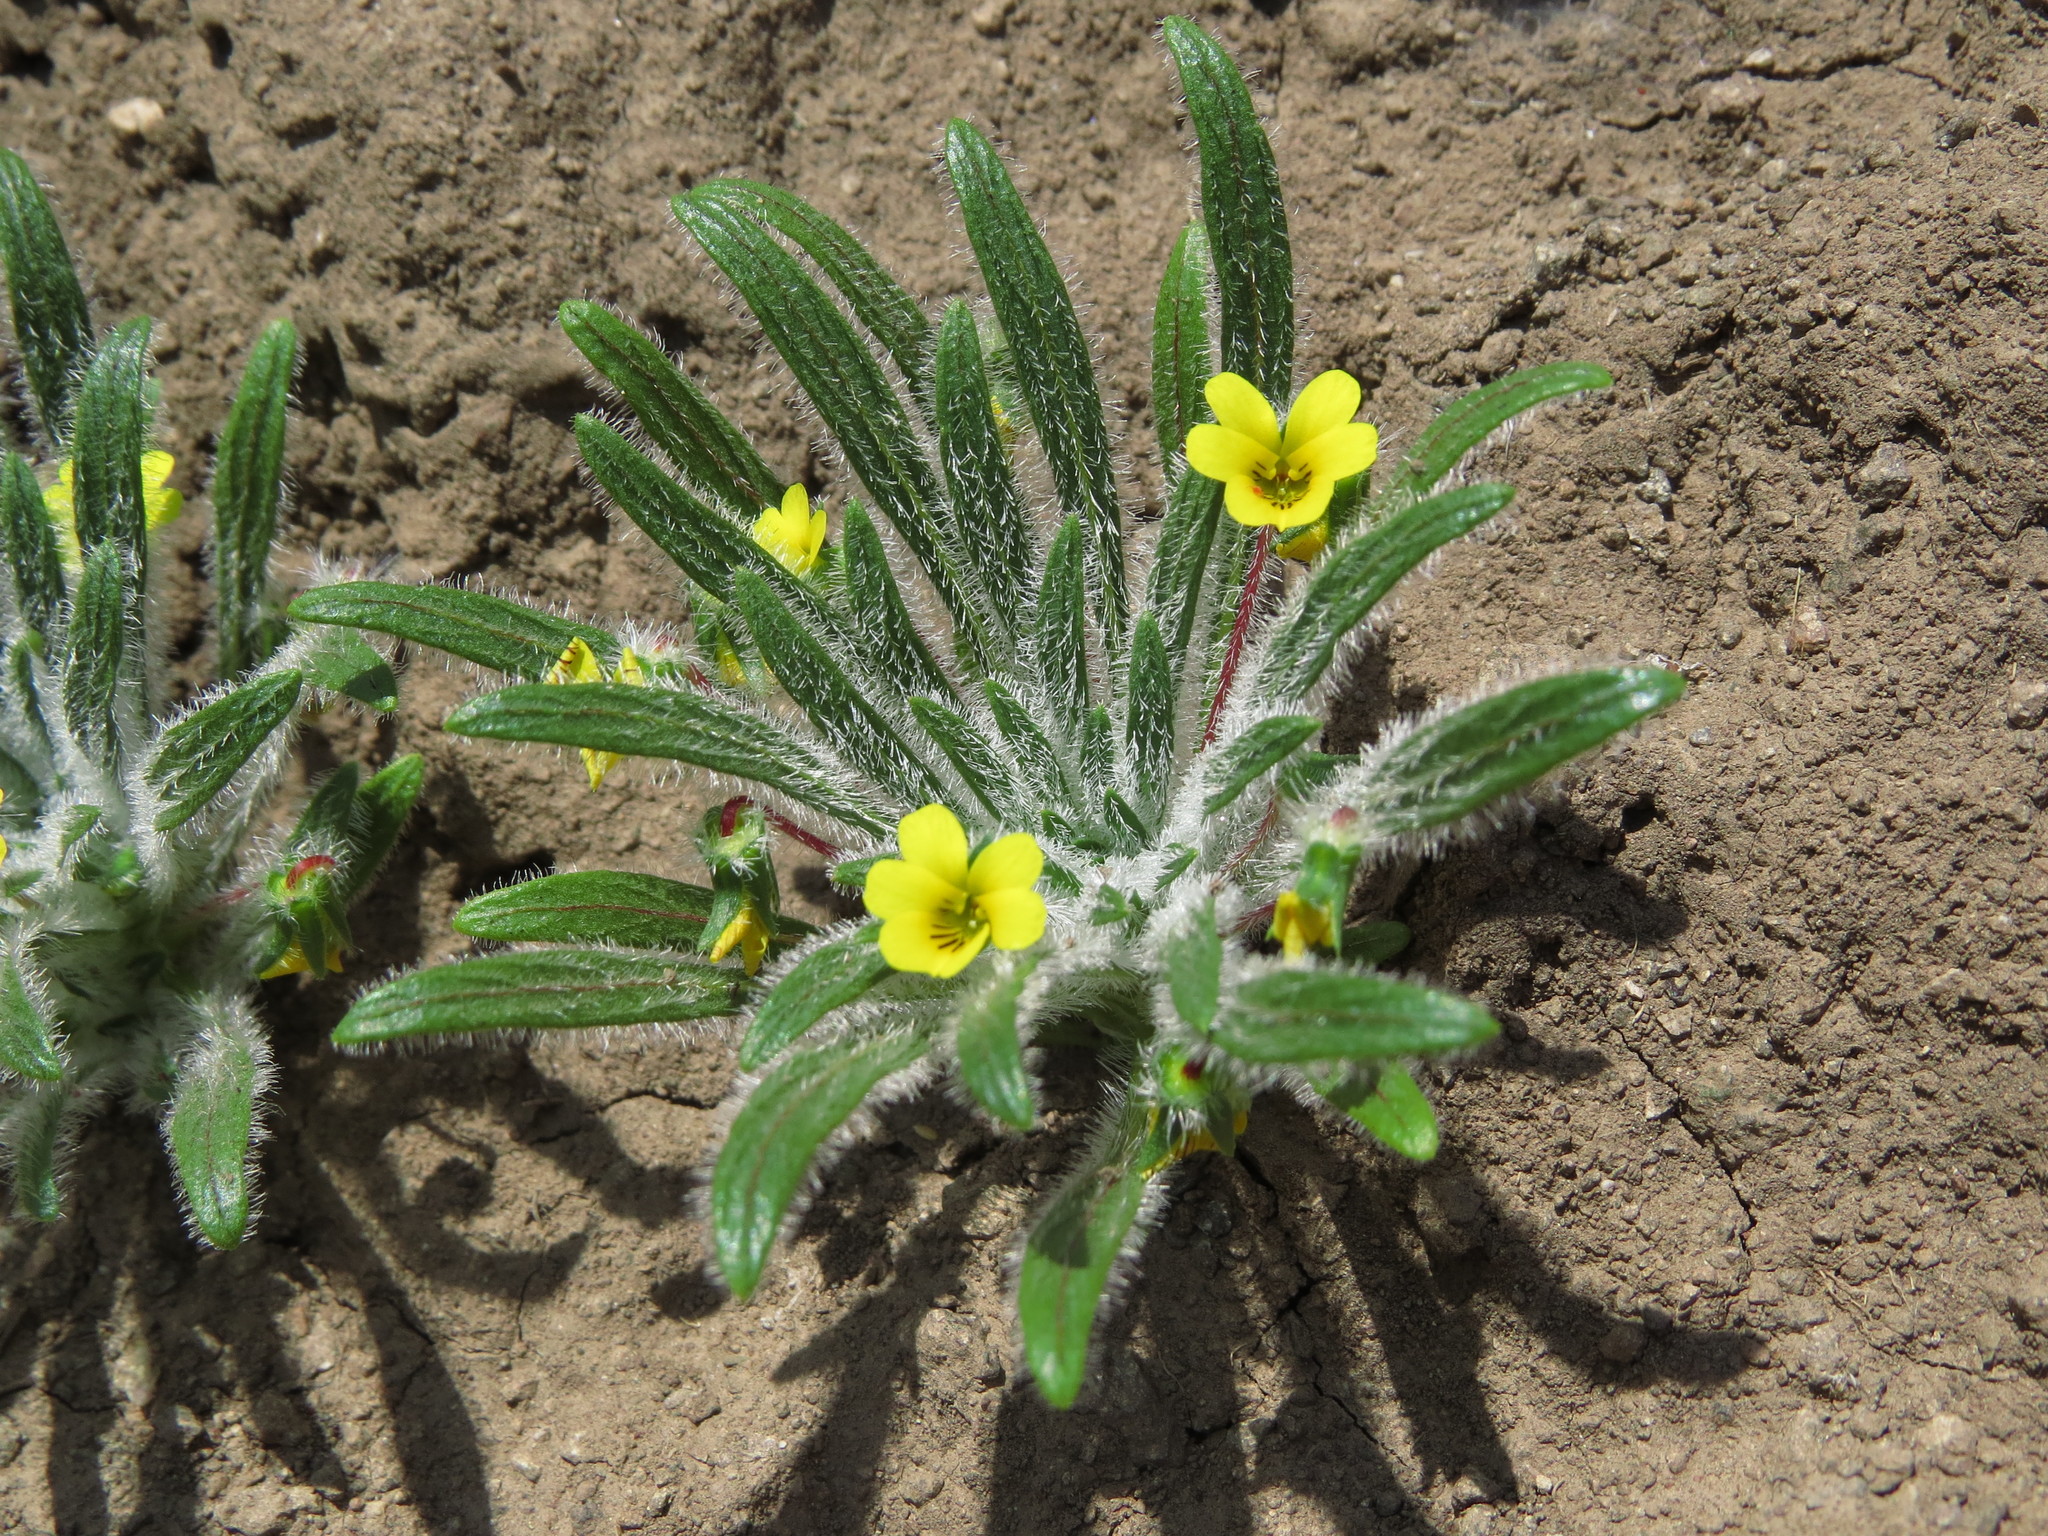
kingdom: Plantae
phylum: Tracheophyta
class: Magnoliopsida
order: Malpighiales
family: Violaceae
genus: Viola
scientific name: Viola pusilla
